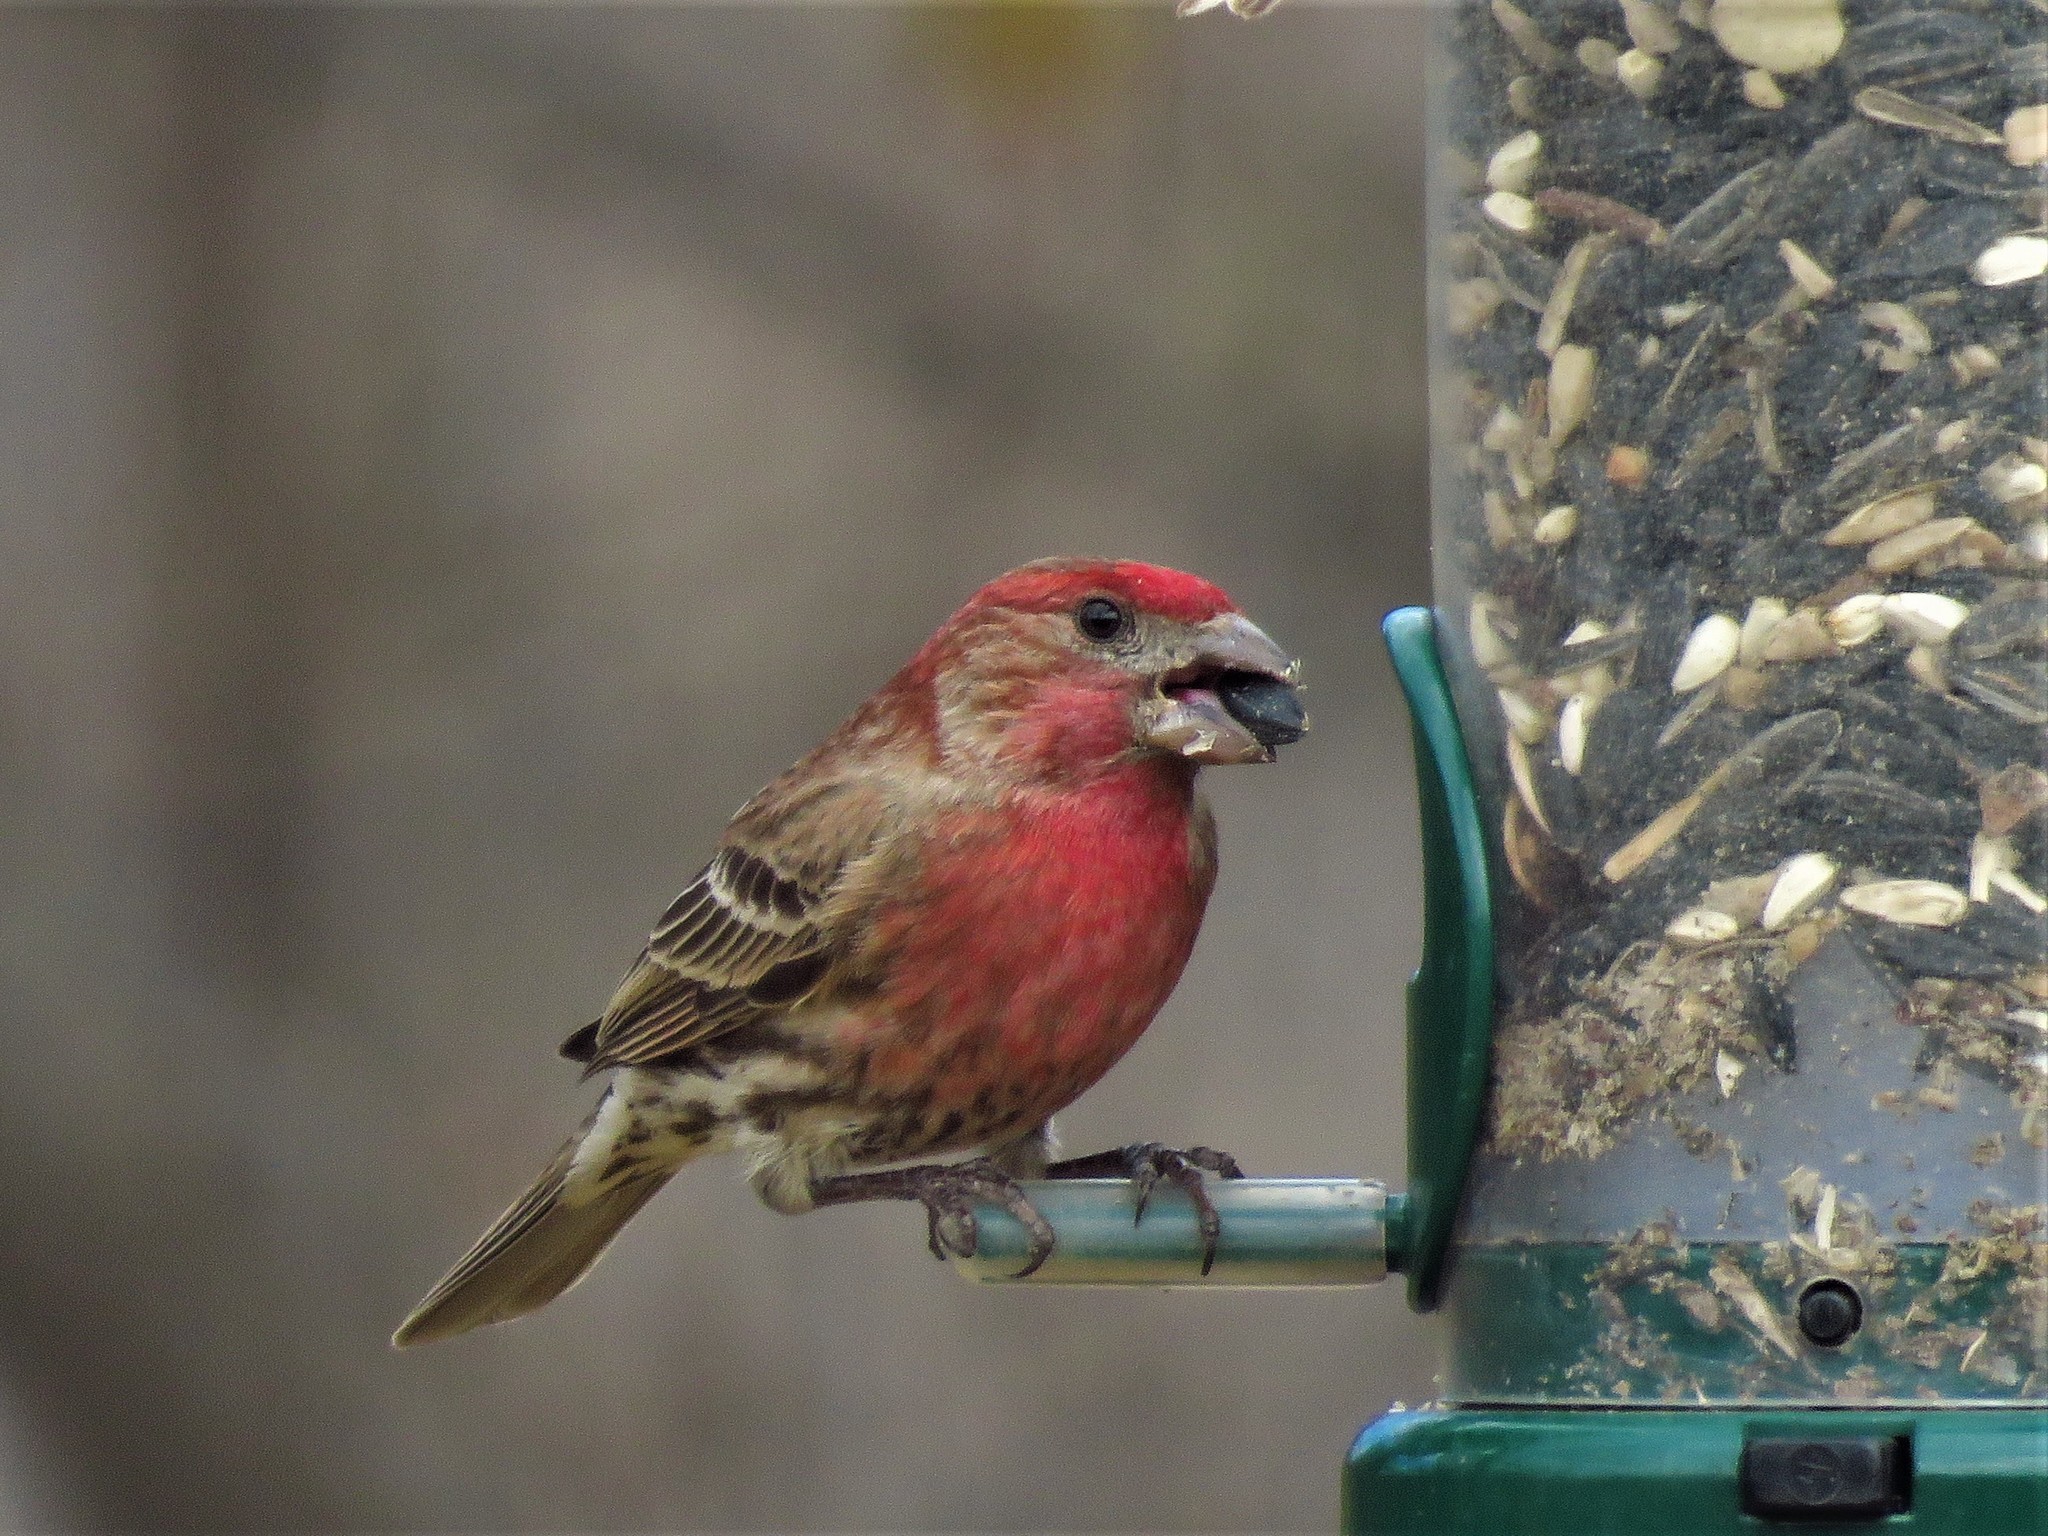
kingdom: Animalia
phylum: Chordata
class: Aves
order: Passeriformes
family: Fringillidae
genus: Haemorhous
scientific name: Haemorhous mexicanus
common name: House finch
